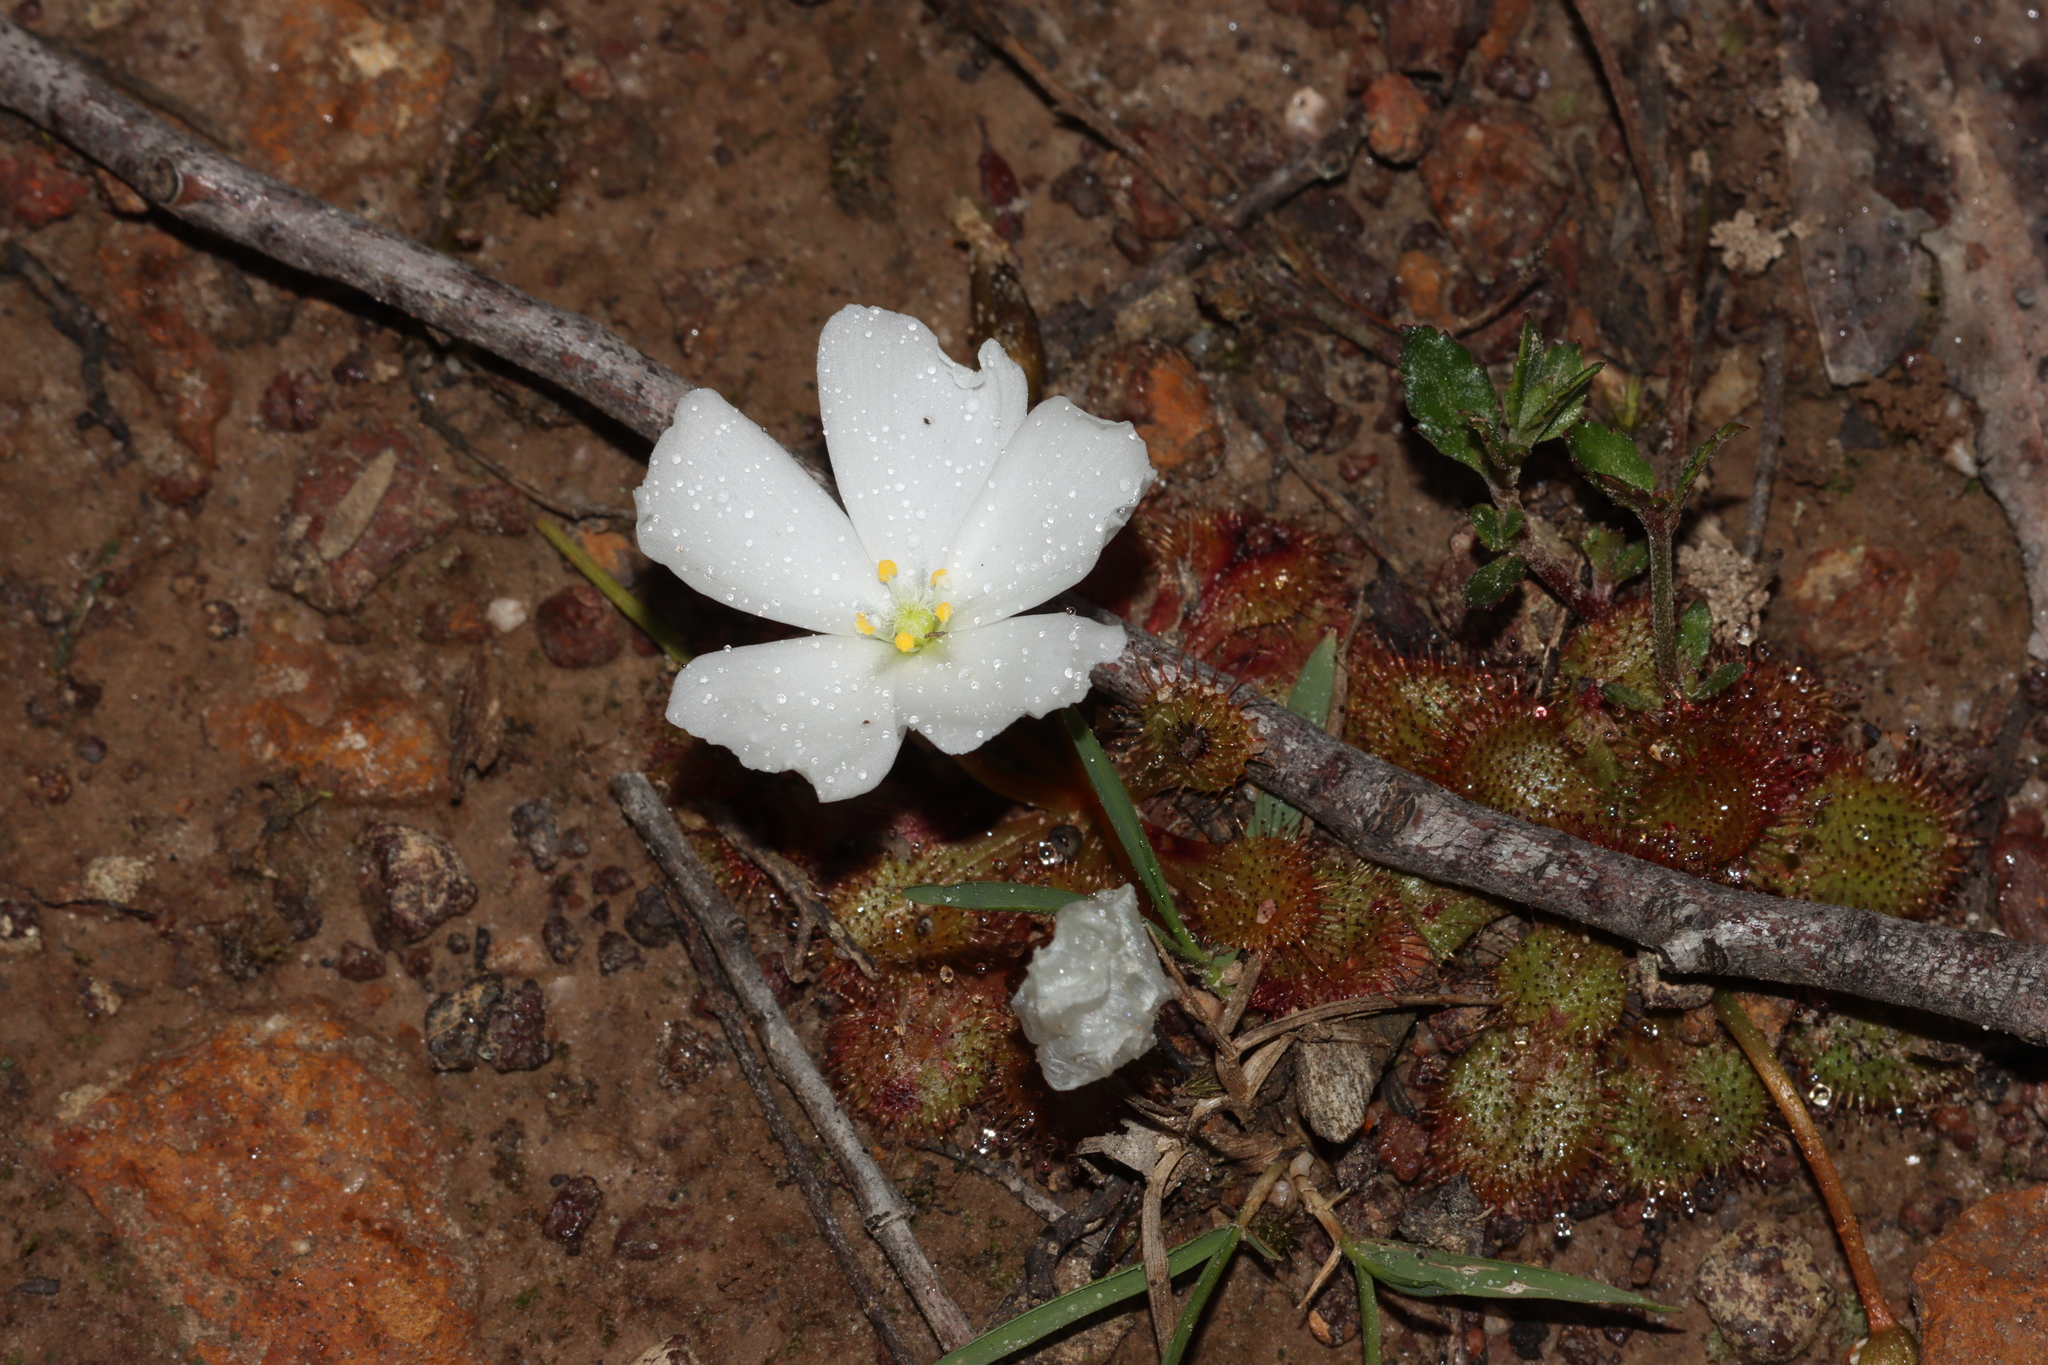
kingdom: Plantae
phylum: Tracheophyta
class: Magnoliopsida
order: Caryophyllales
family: Droseraceae
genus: Drosera
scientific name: Drosera whittakeri
